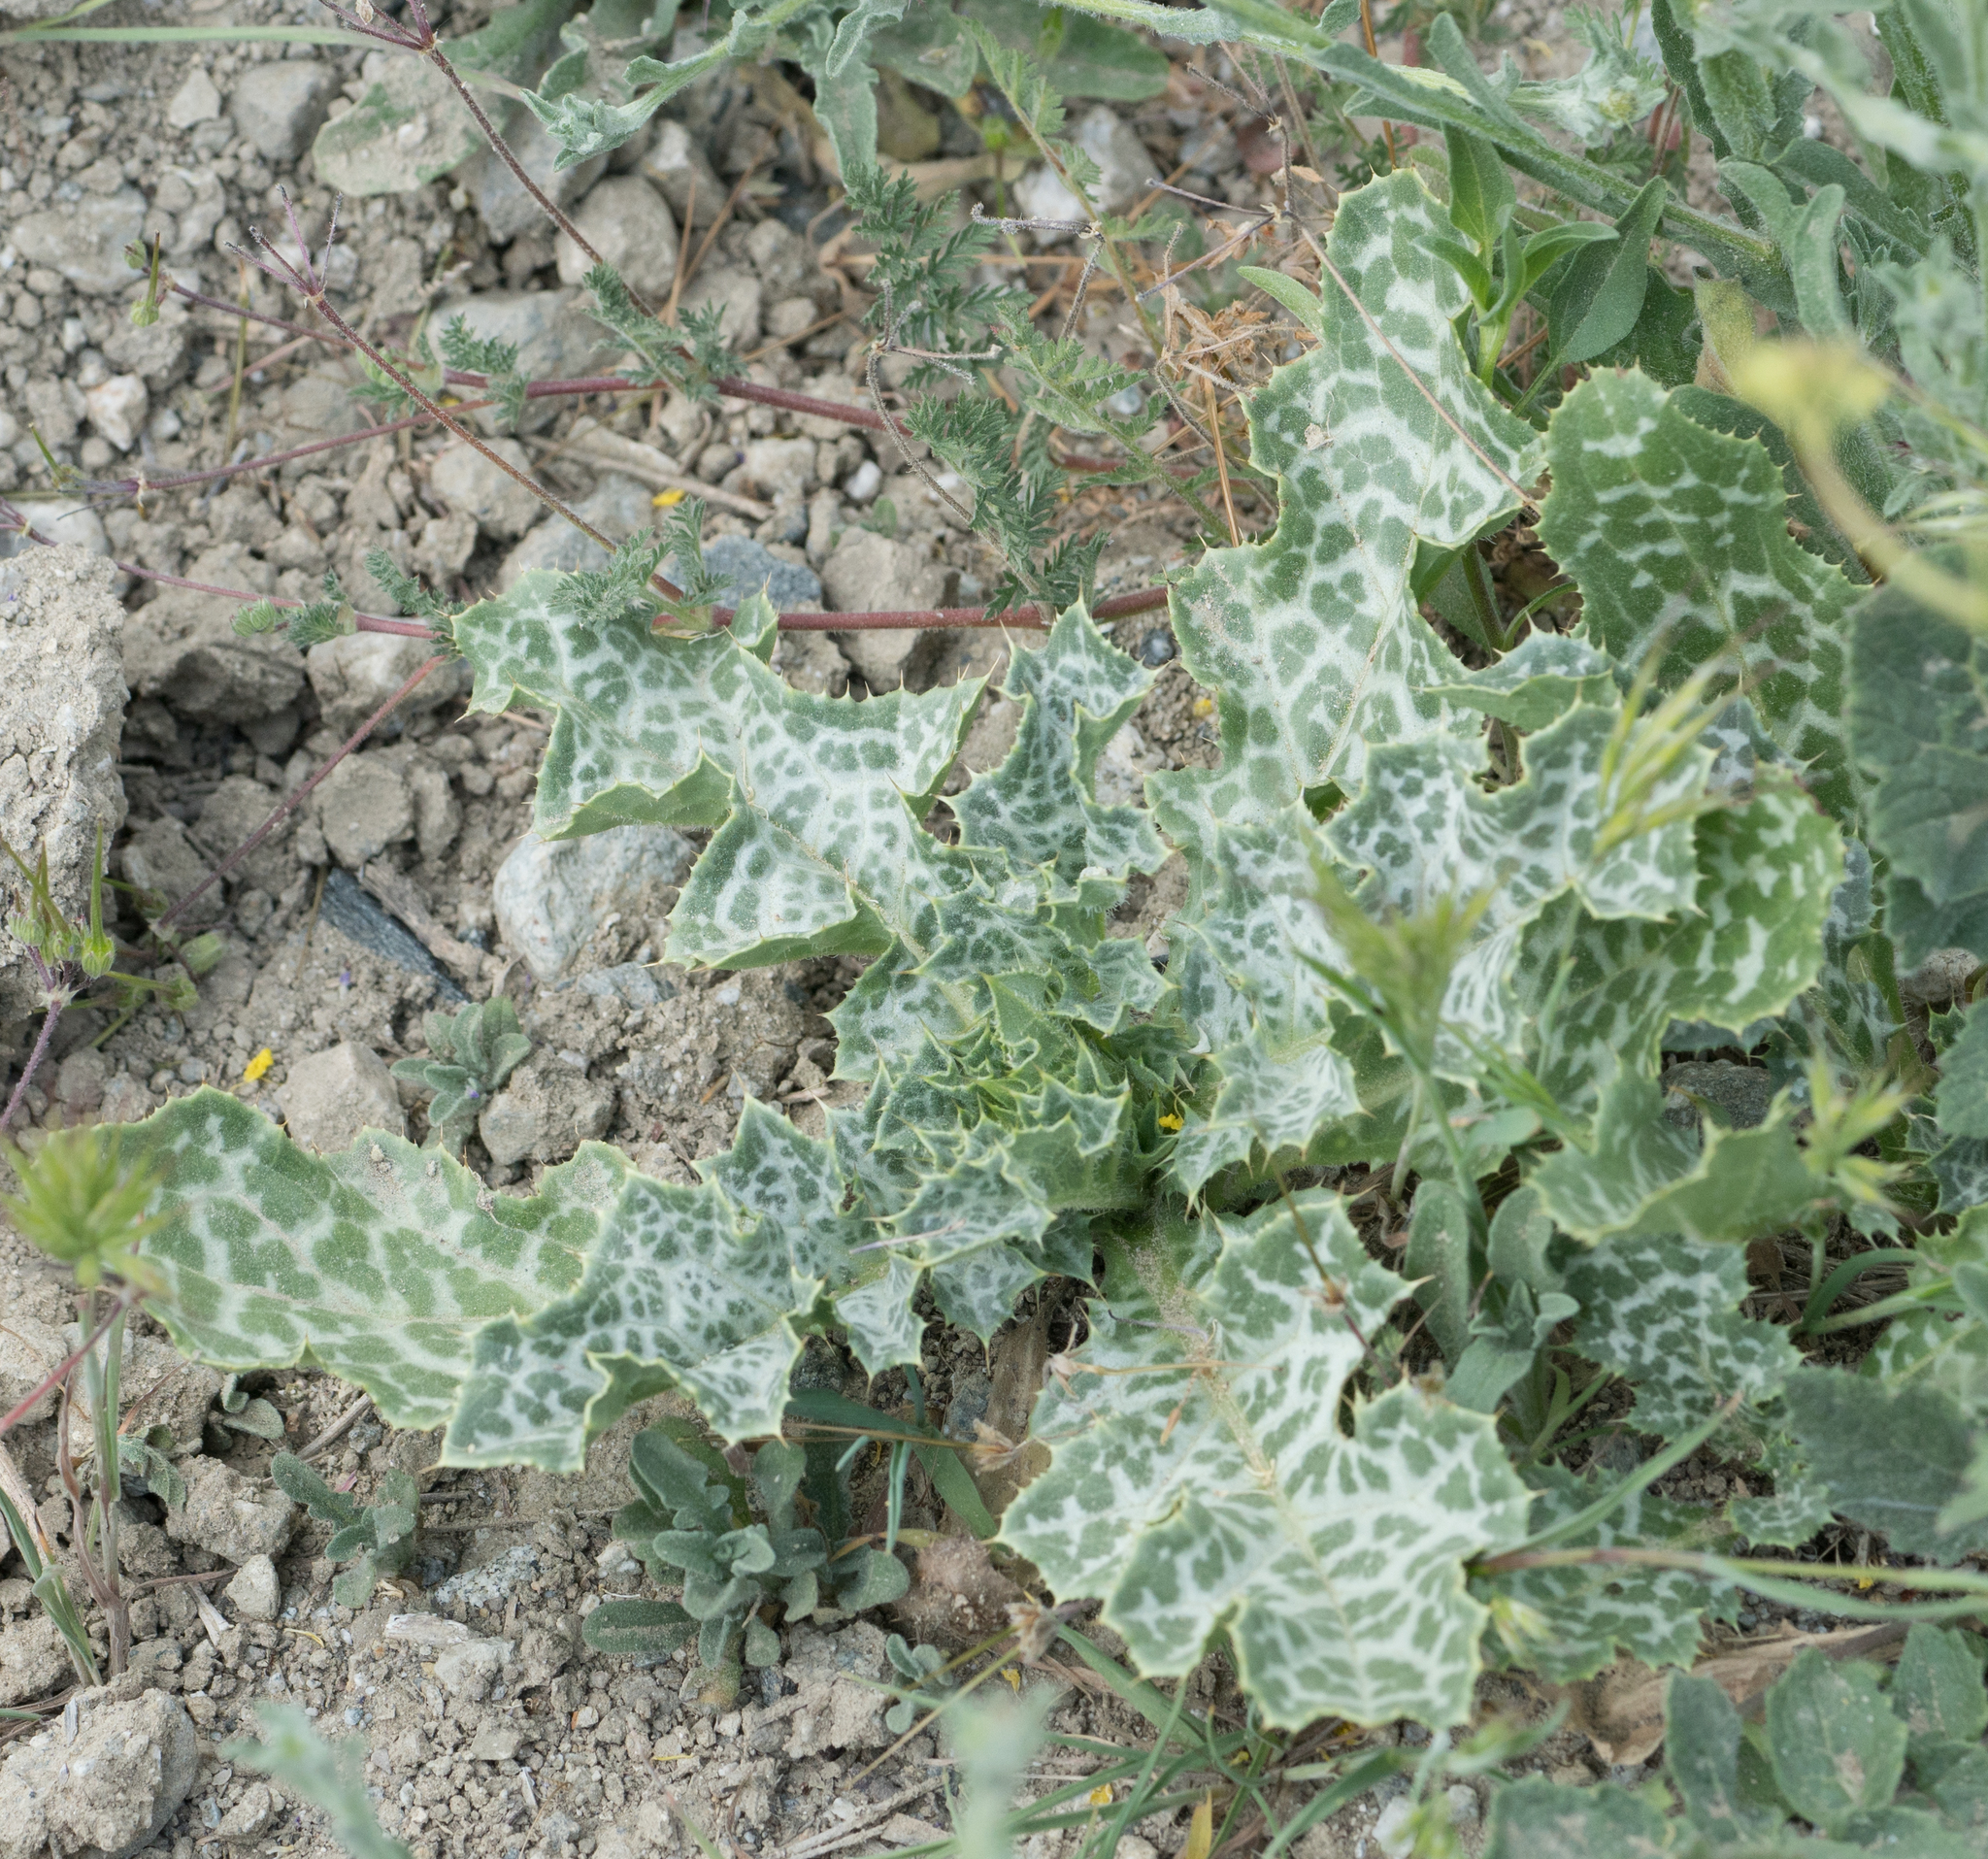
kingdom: Plantae
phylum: Tracheophyta
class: Magnoliopsida
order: Asterales
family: Asteraceae
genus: Silybum
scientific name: Silybum marianum
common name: Milk thistle
